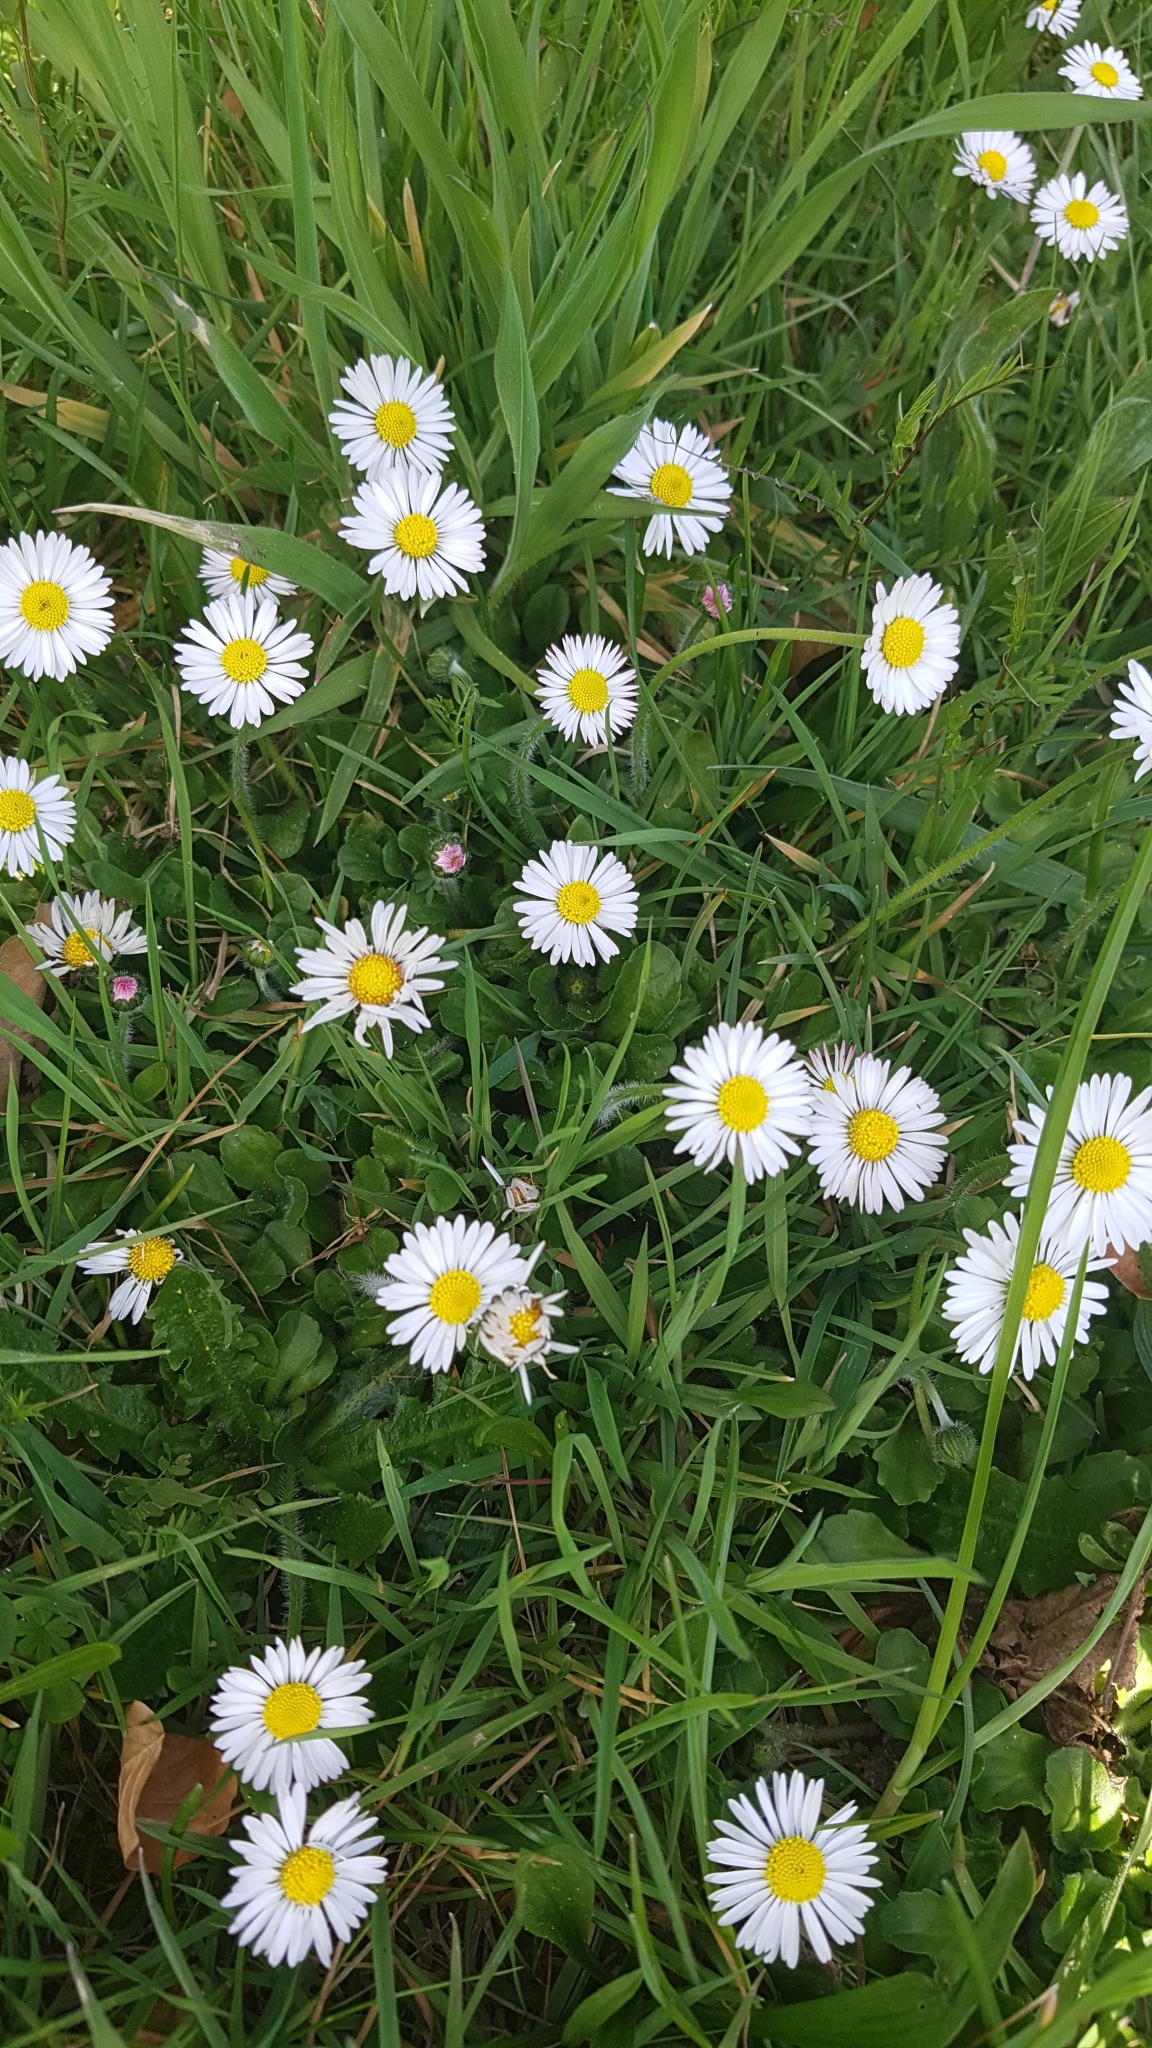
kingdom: Plantae
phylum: Tracheophyta
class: Magnoliopsida
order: Asterales
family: Asteraceae
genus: Bellis
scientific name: Bellis perennis
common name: Lawndaisy
